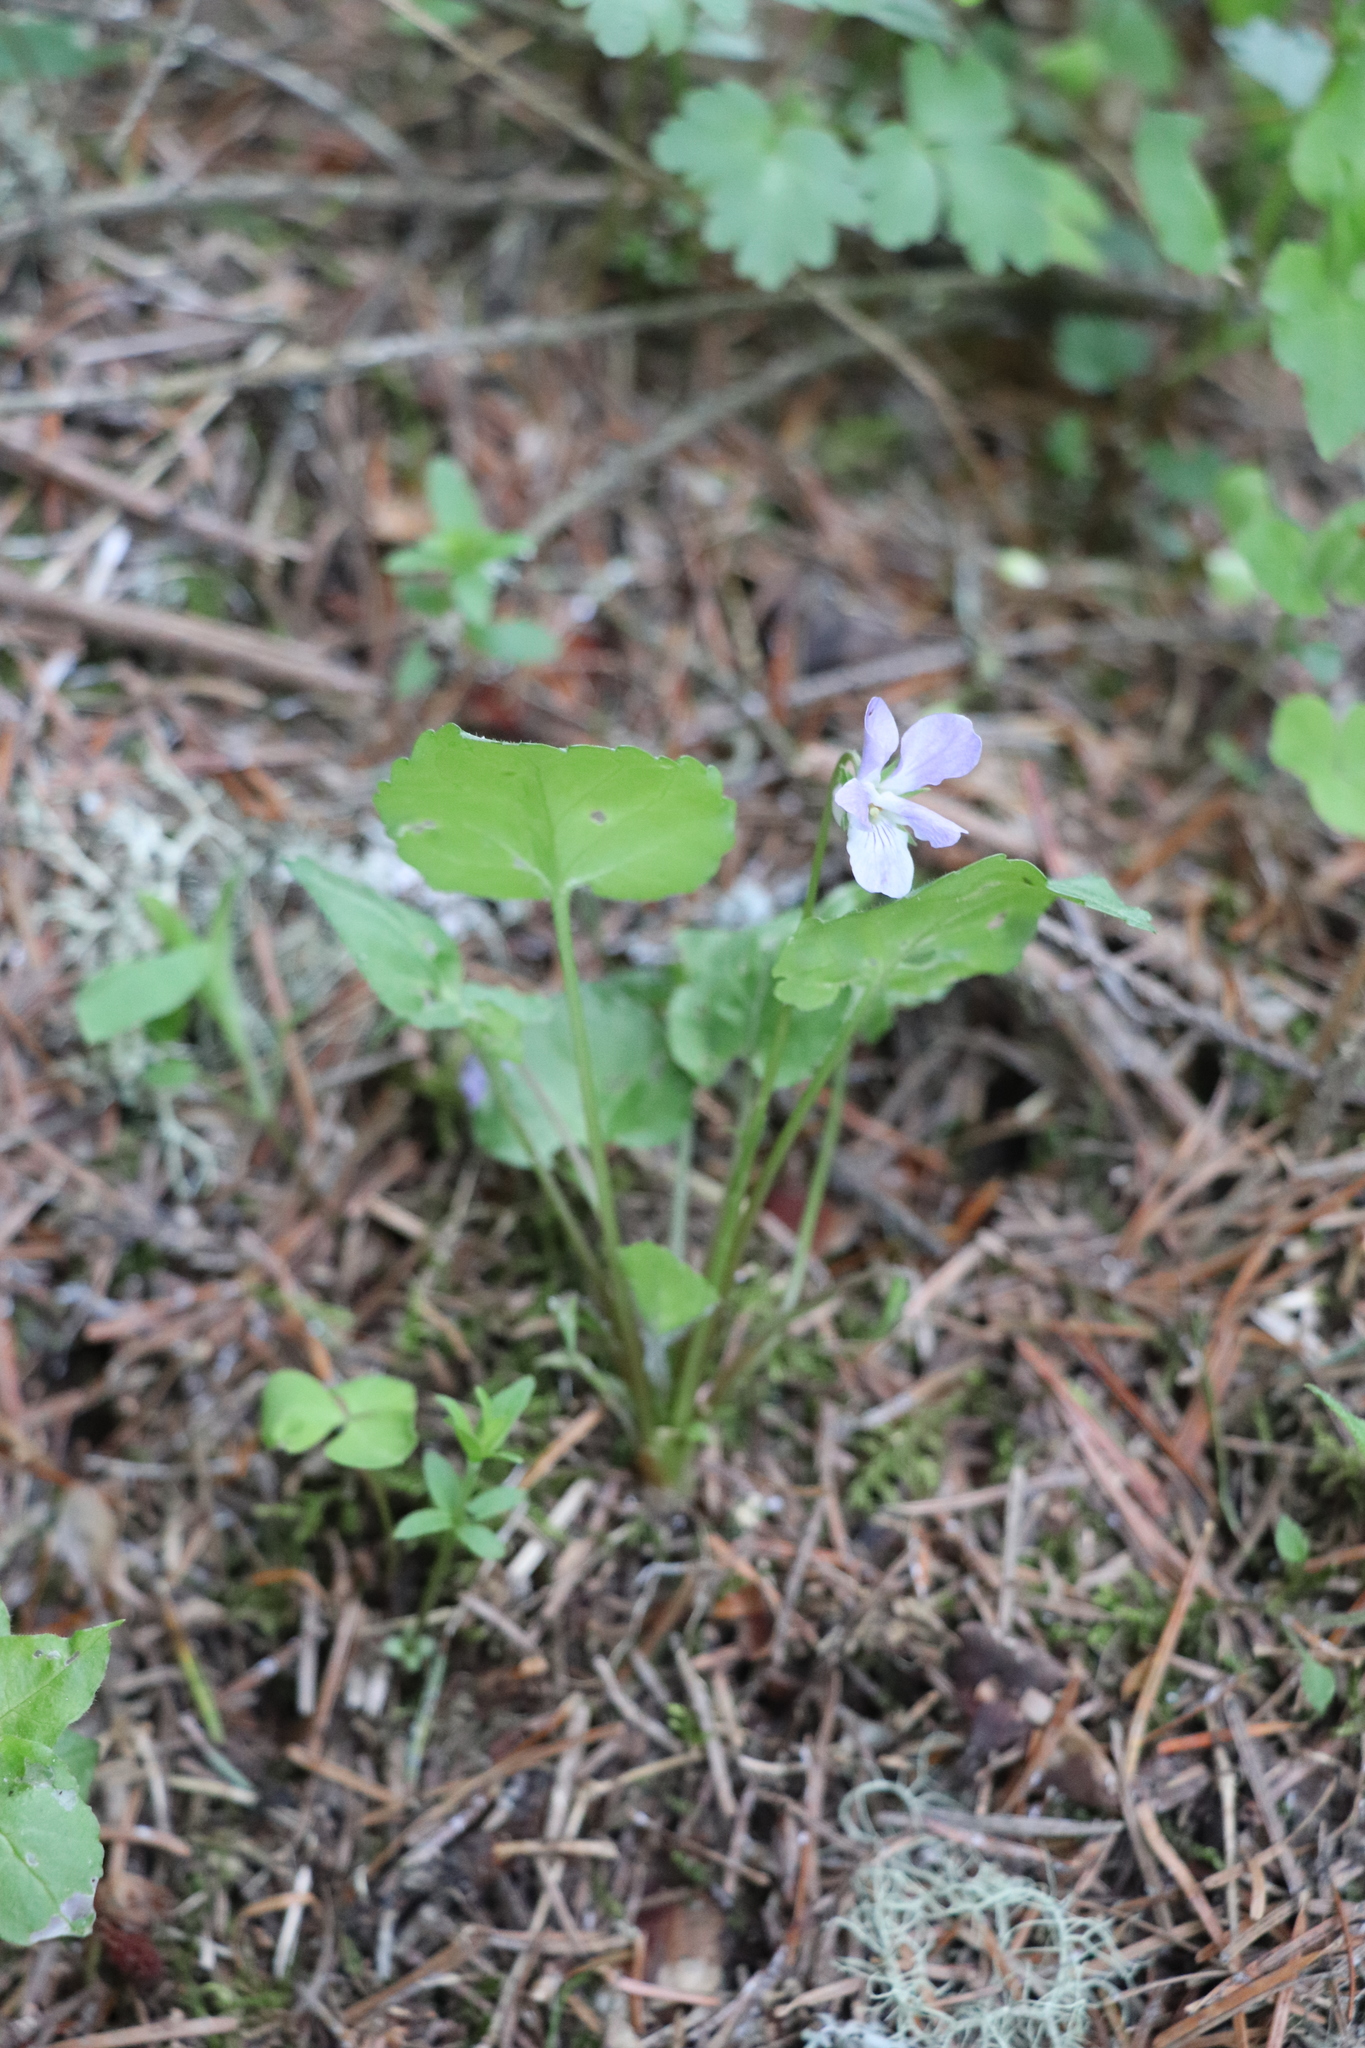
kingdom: Plantae
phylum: Tracheophyta
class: Magnoliopsida
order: Malpighiales
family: Violaceae
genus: Viola
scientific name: Viola selkirkii
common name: Selkirk's violet
